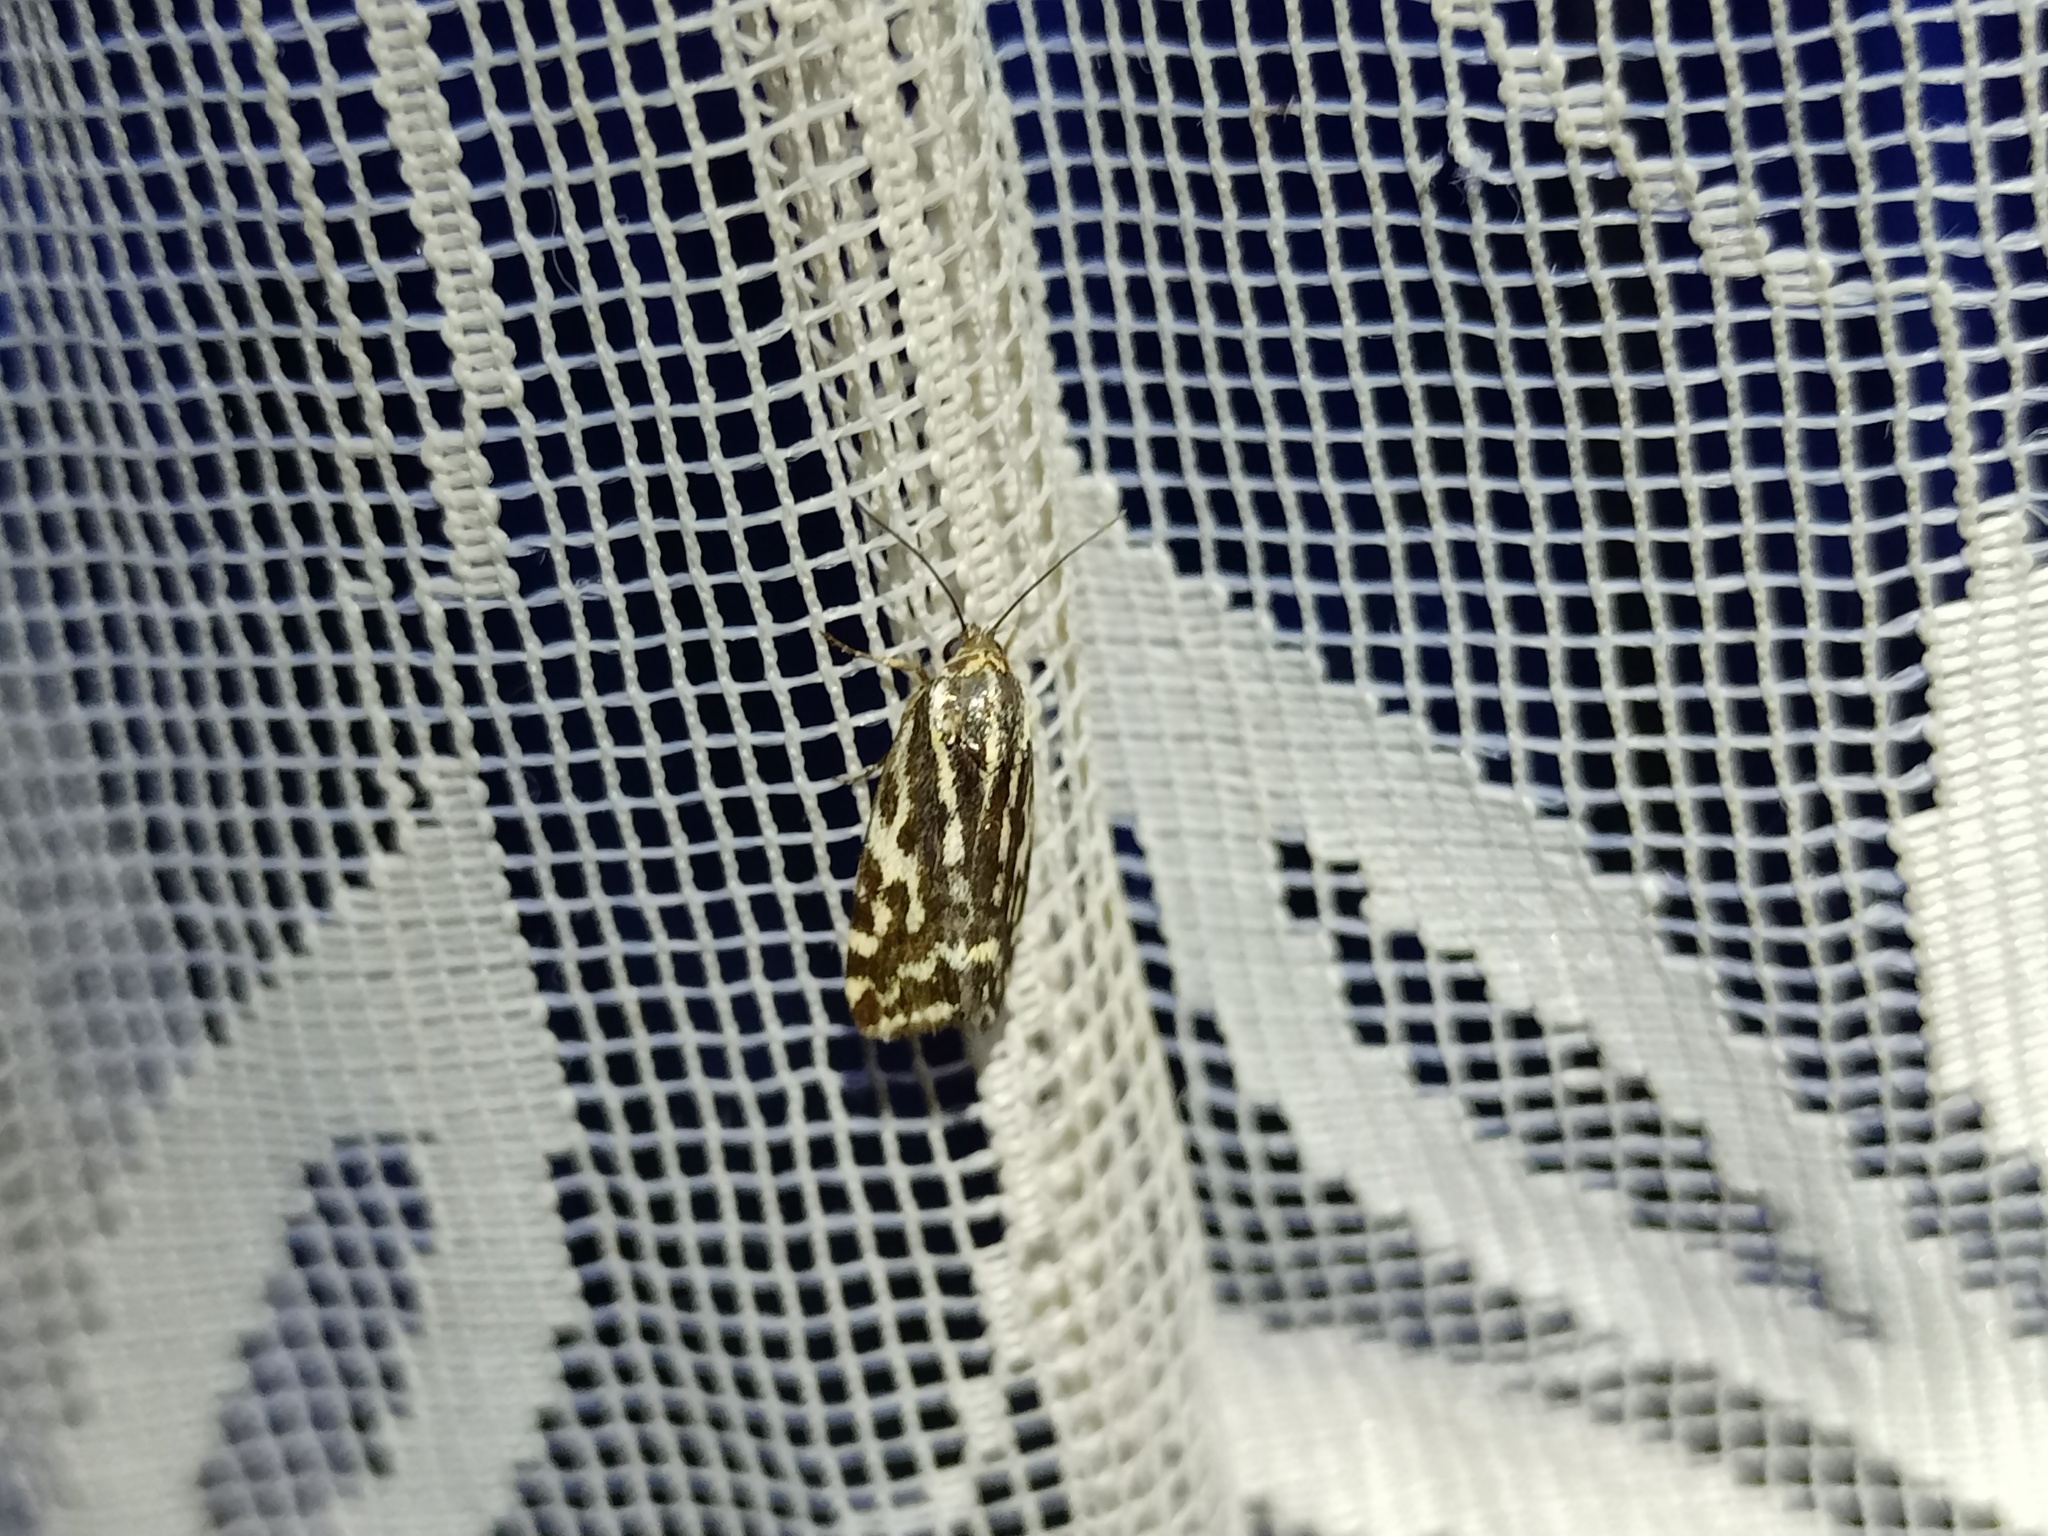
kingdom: Animalia
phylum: Arthropoda
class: Insecta
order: Lepidoptera
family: Noctuidae
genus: Acontia
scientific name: Acontia trabealis
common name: Spotted sulphur
